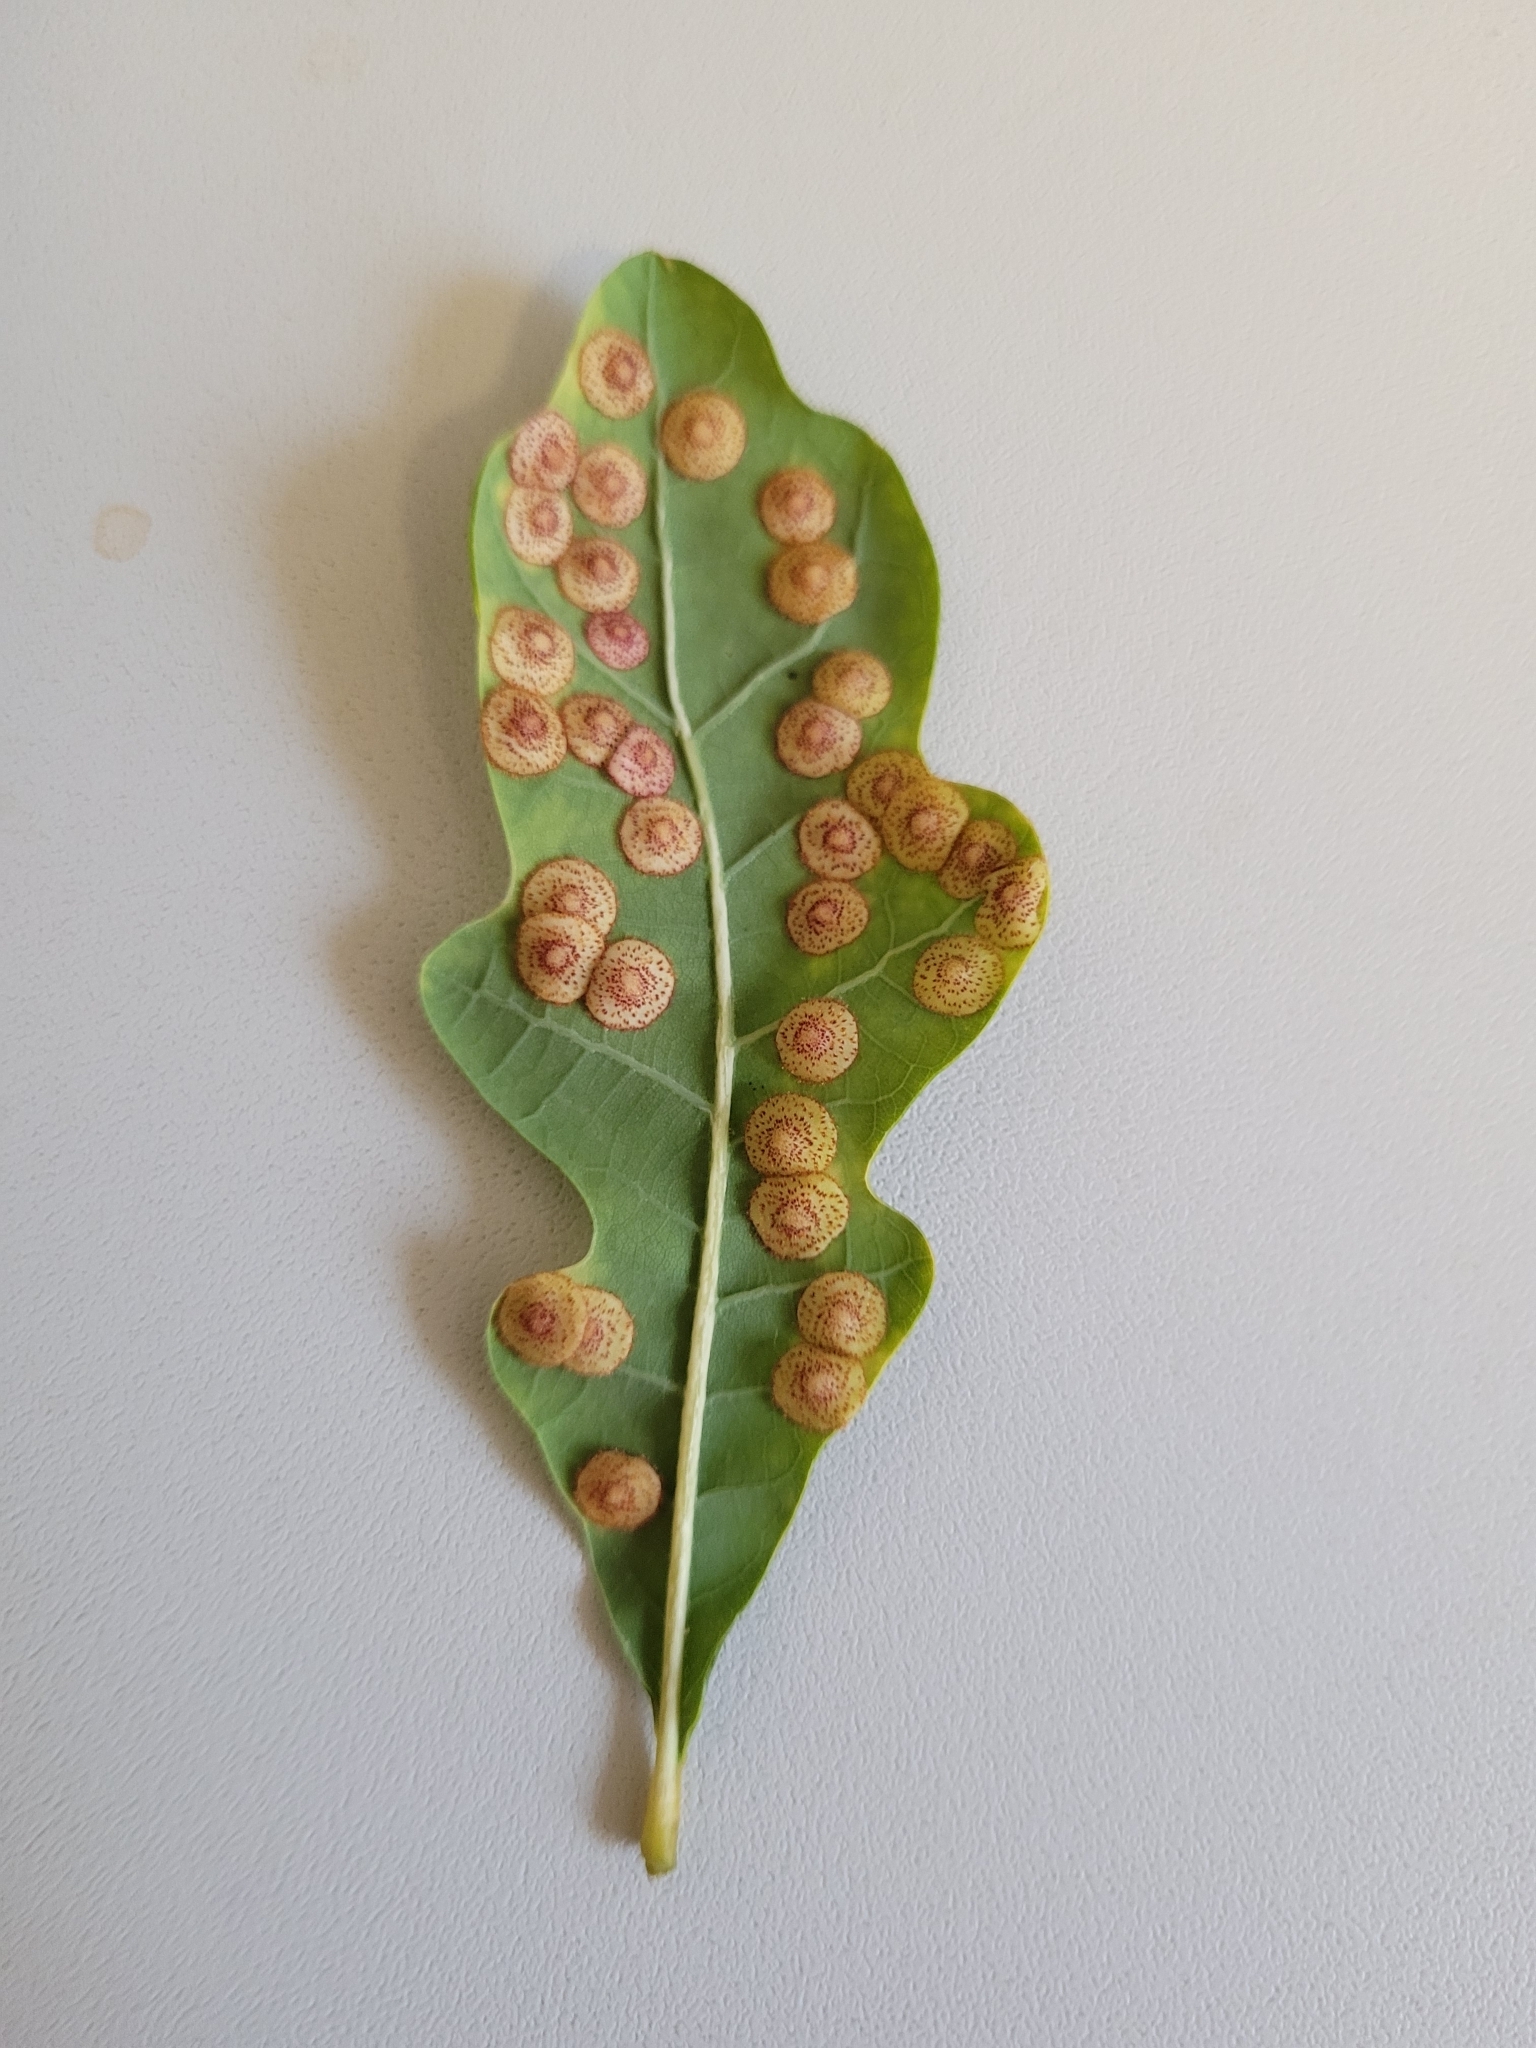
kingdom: Animalia
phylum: Arthropoda
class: Insecta
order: Hymenoptera
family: Cynipidae
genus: Neuroterus
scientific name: Neuroterus quercusbaccarum
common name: Common spangle gall
